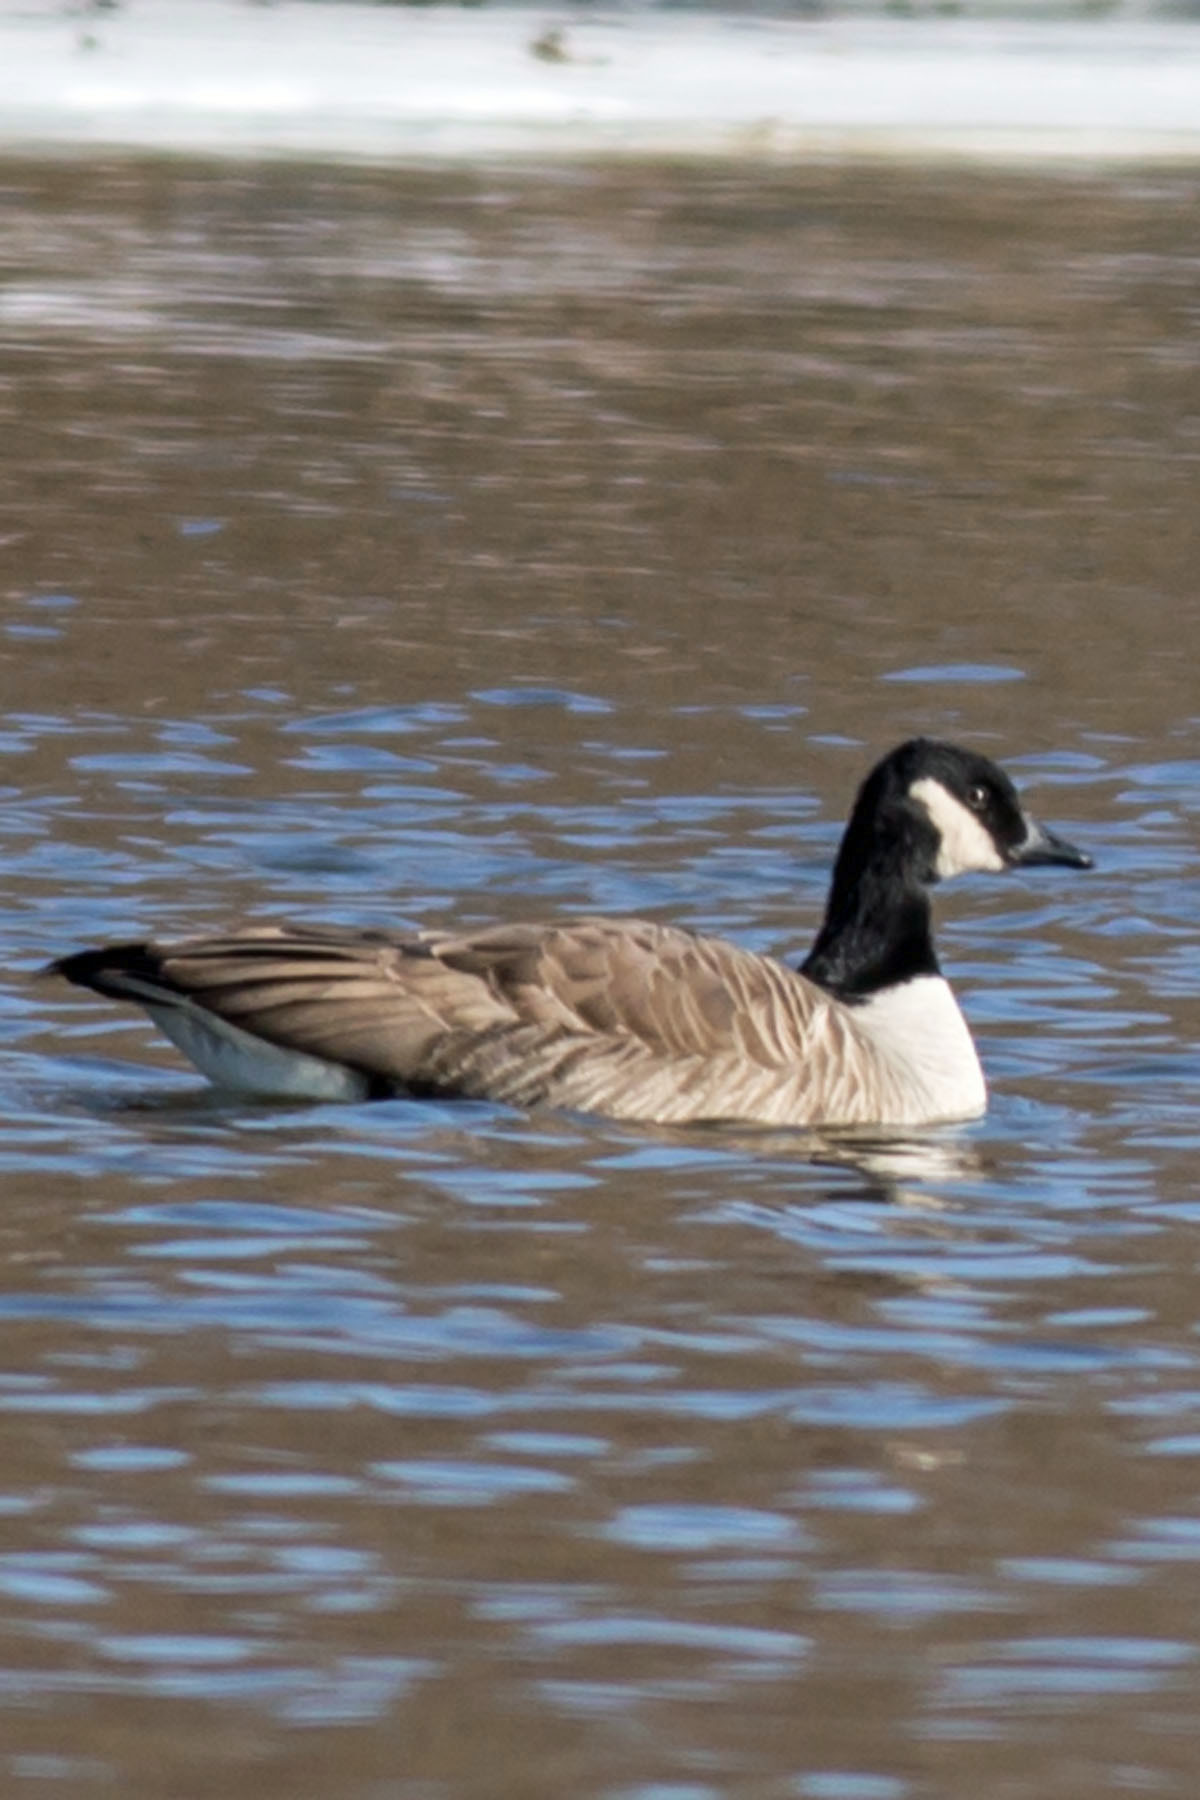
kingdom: Animalia
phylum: Chordata
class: Aves
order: Anseriformes
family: Anatidae
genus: Branta
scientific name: Branta canadensis
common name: Canada goose
